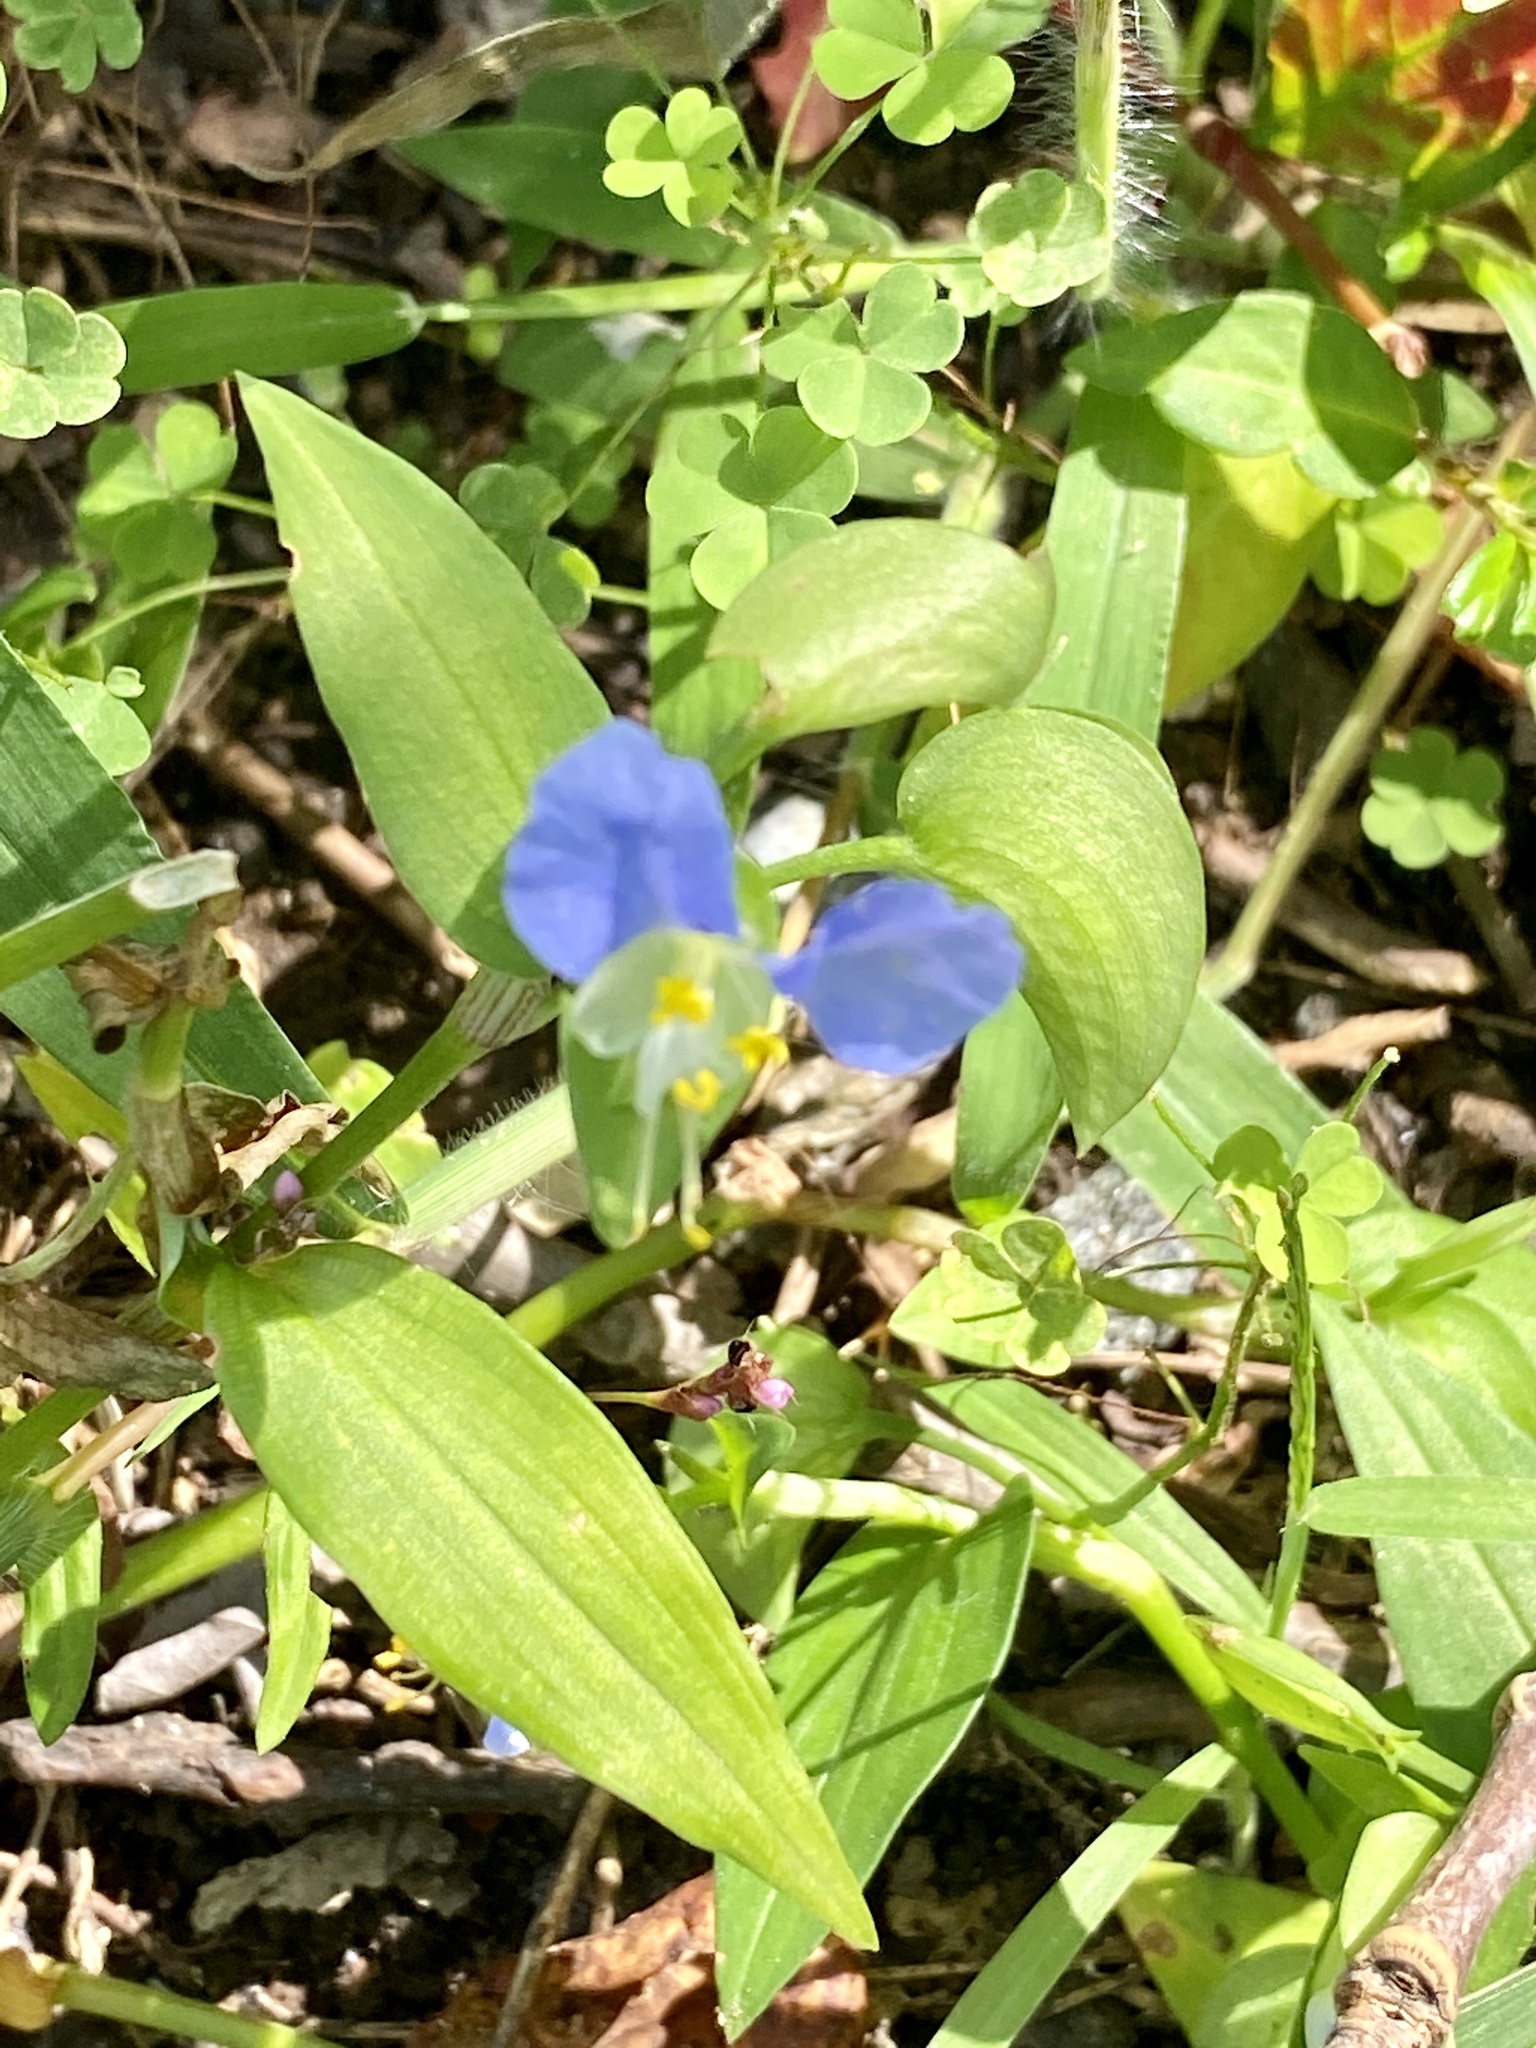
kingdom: Plantae
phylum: Tracheophyta
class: Liliopsida
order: Commelinales
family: Commelinaceae
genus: Commelina
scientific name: Commelina communis
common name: Asiatic dayflower
